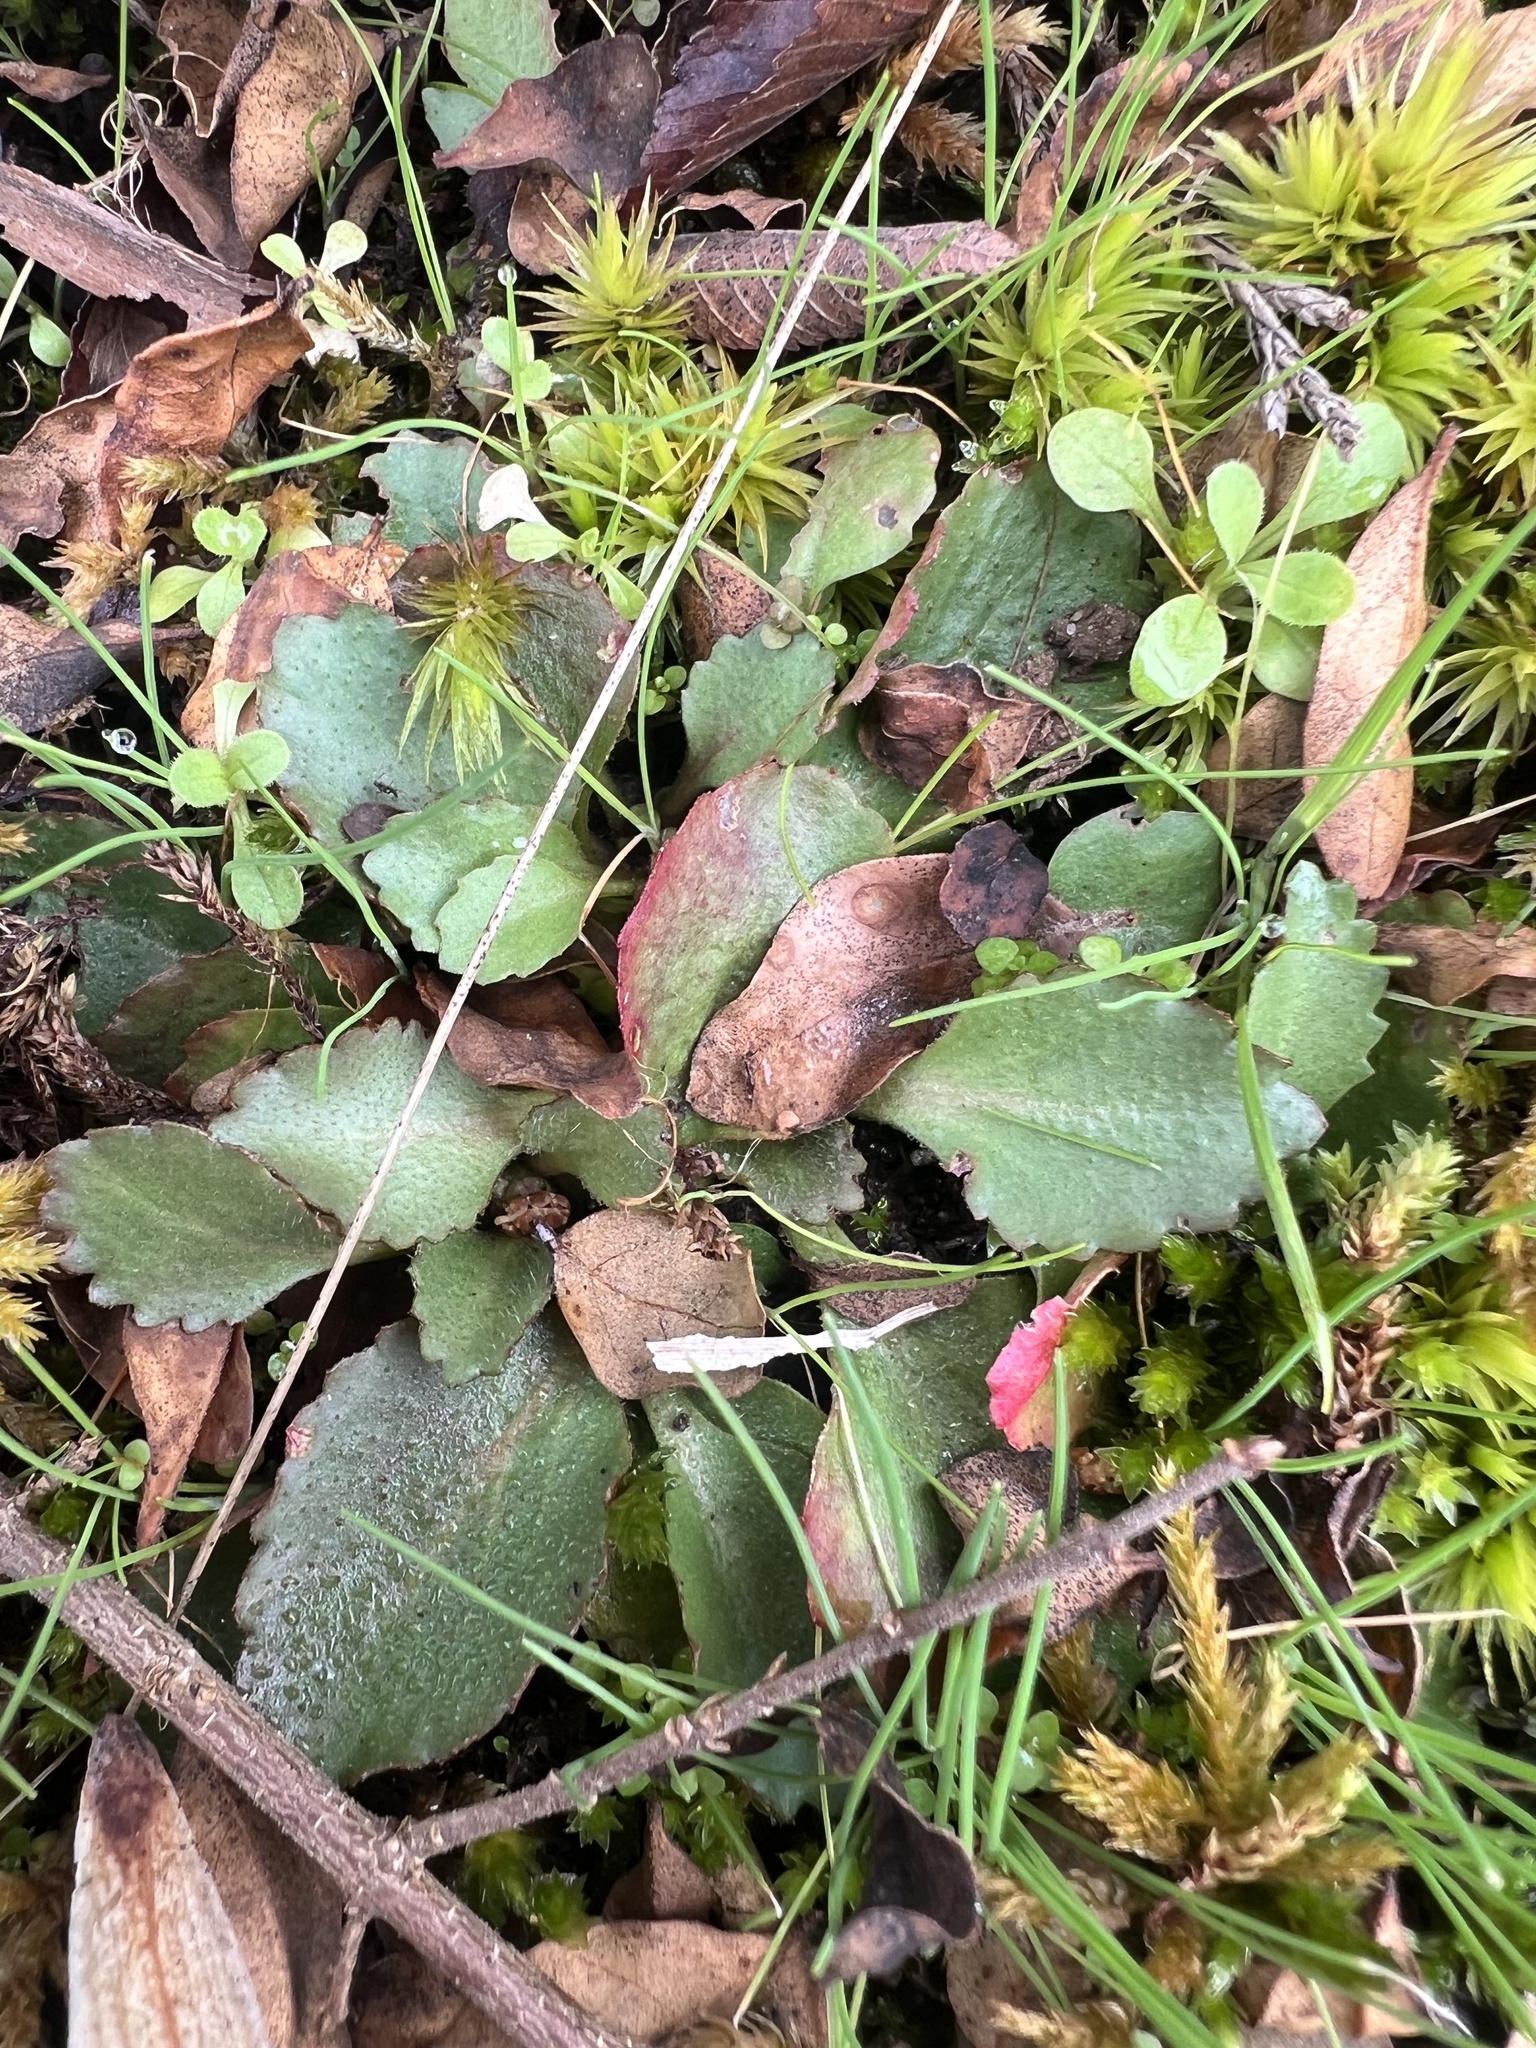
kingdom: Plantae
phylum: Tracheophyta
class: Magnoliopsida
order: Saxifragales
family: Saxifragaceae
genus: Micranthes
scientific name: Micranthes virginiensis
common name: Early saxifrage
